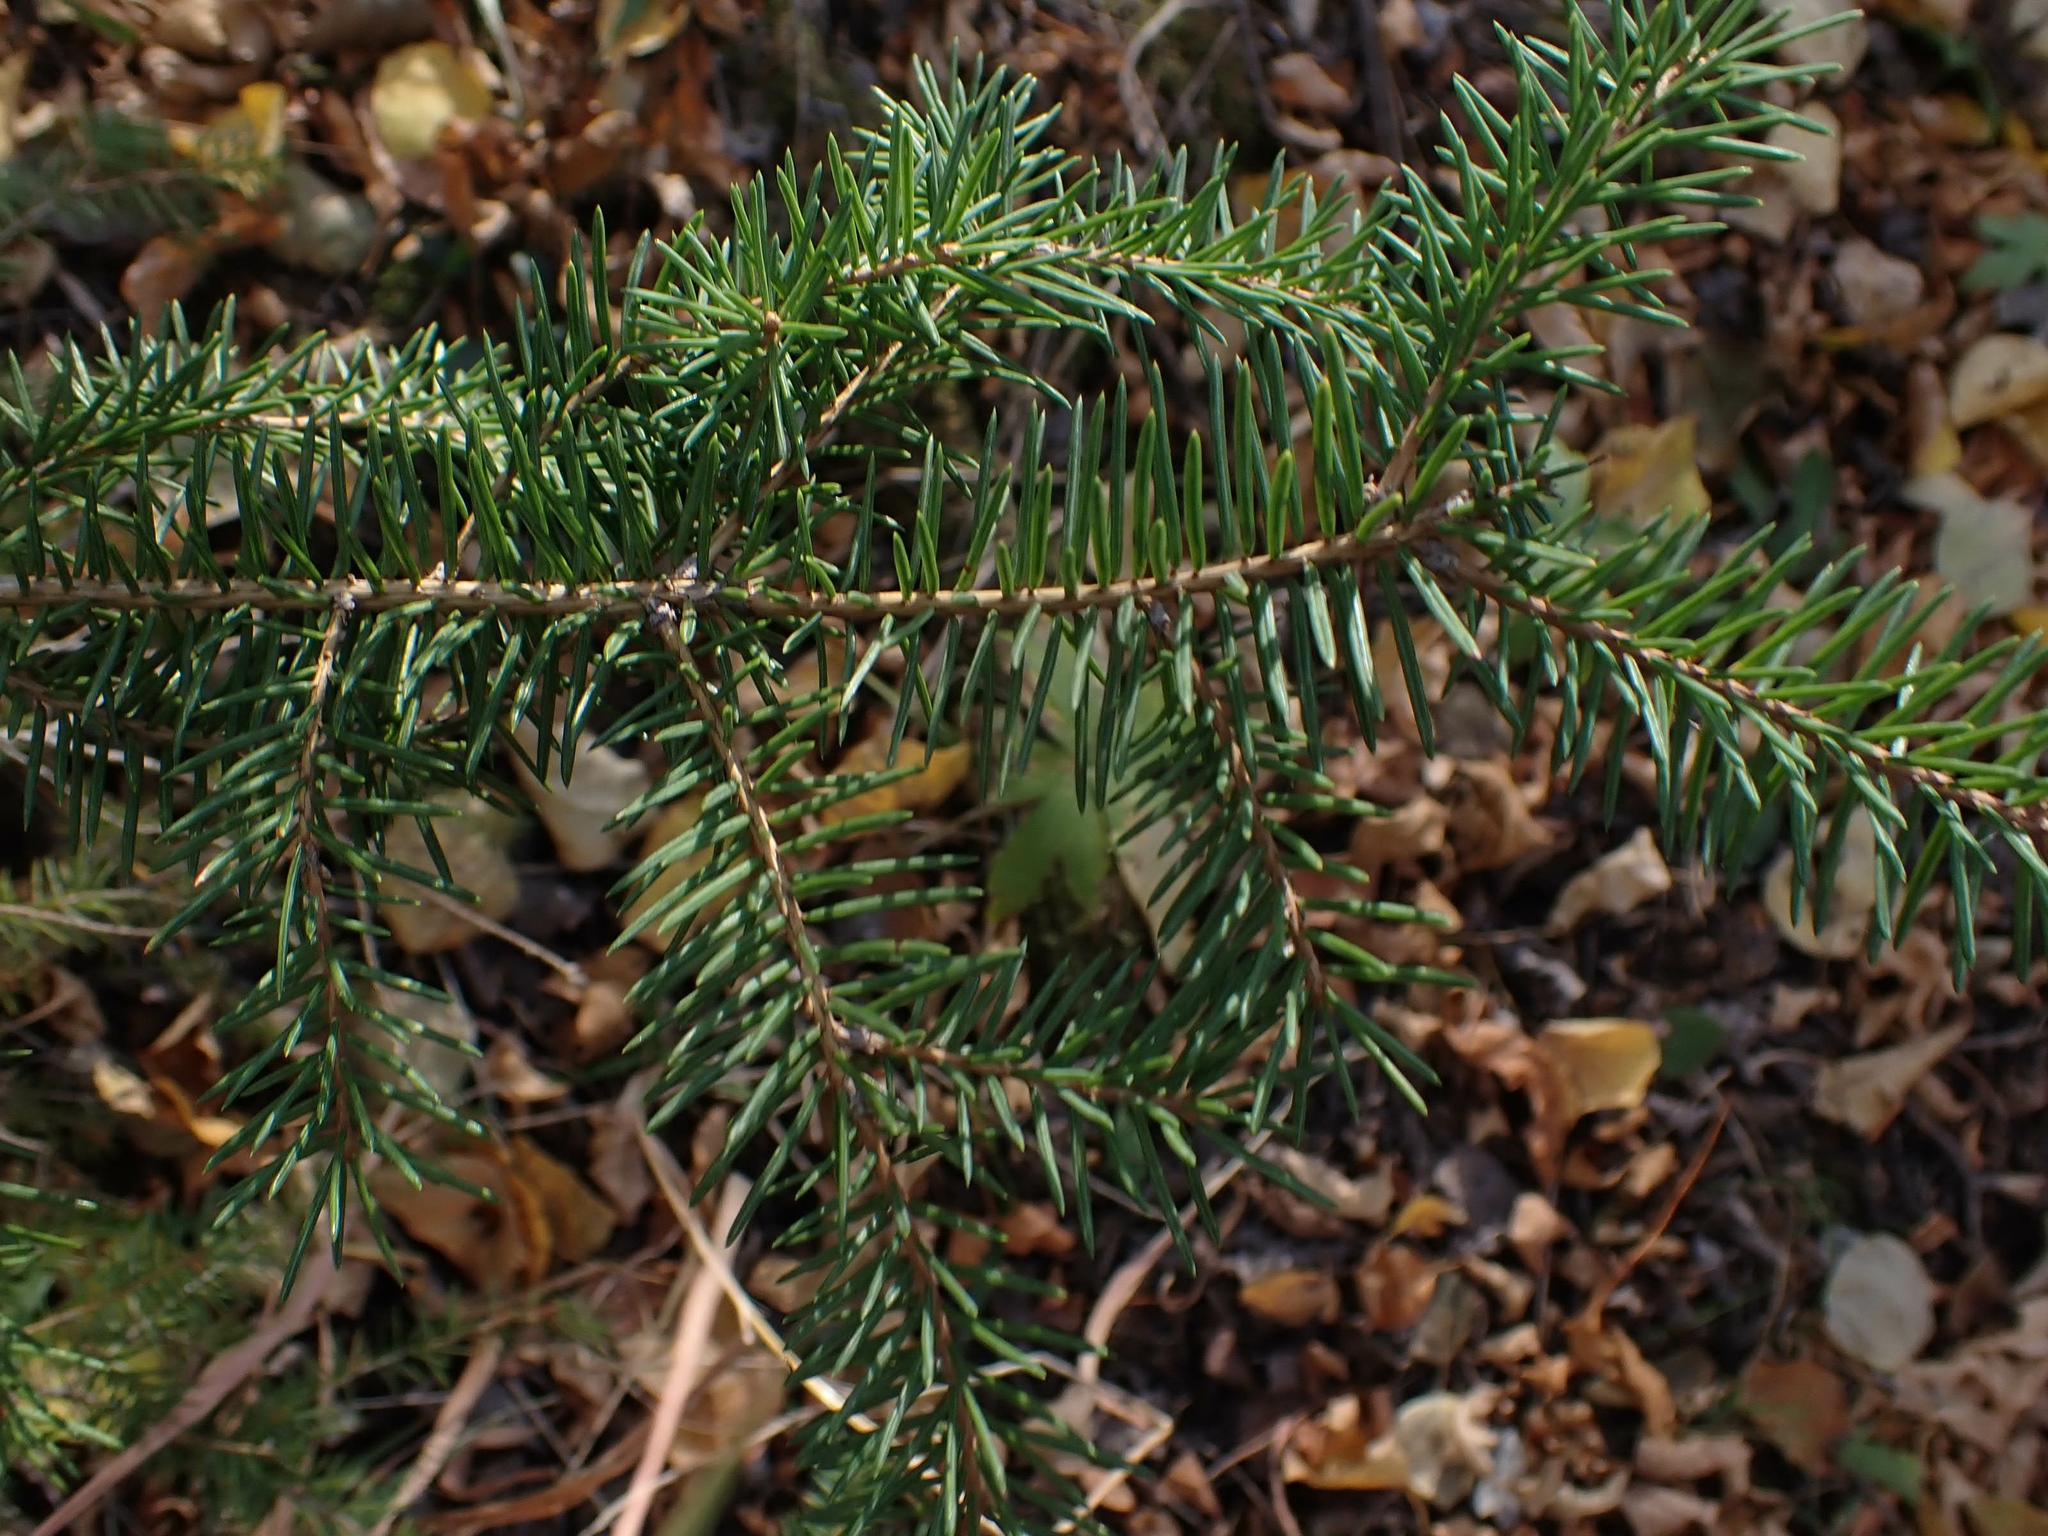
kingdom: Plantae
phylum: Tracheophyta
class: Pinopsida
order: Pinales
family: Pinaceae
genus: Picea
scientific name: Picea glauca
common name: White spruce
